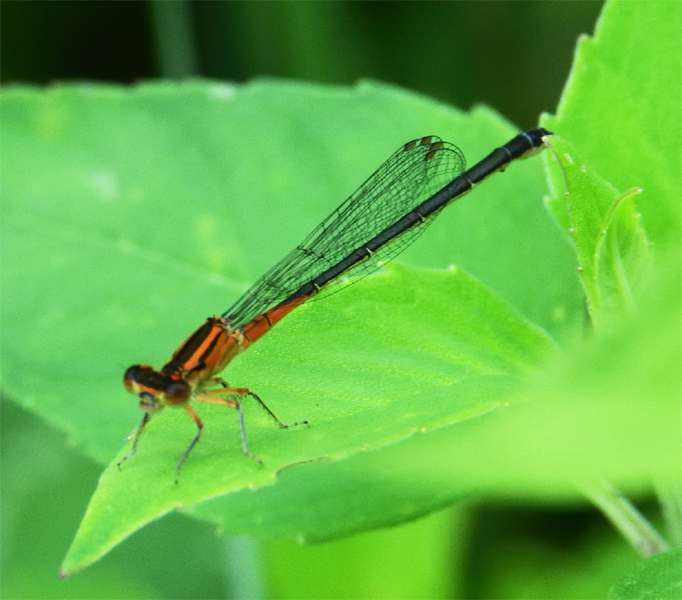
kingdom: Animalia
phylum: Arthropoda
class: Insecta
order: Odonata
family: Coenagrionidae
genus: Ischnura
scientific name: Ischnura verticalis
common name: Eastern forktail
